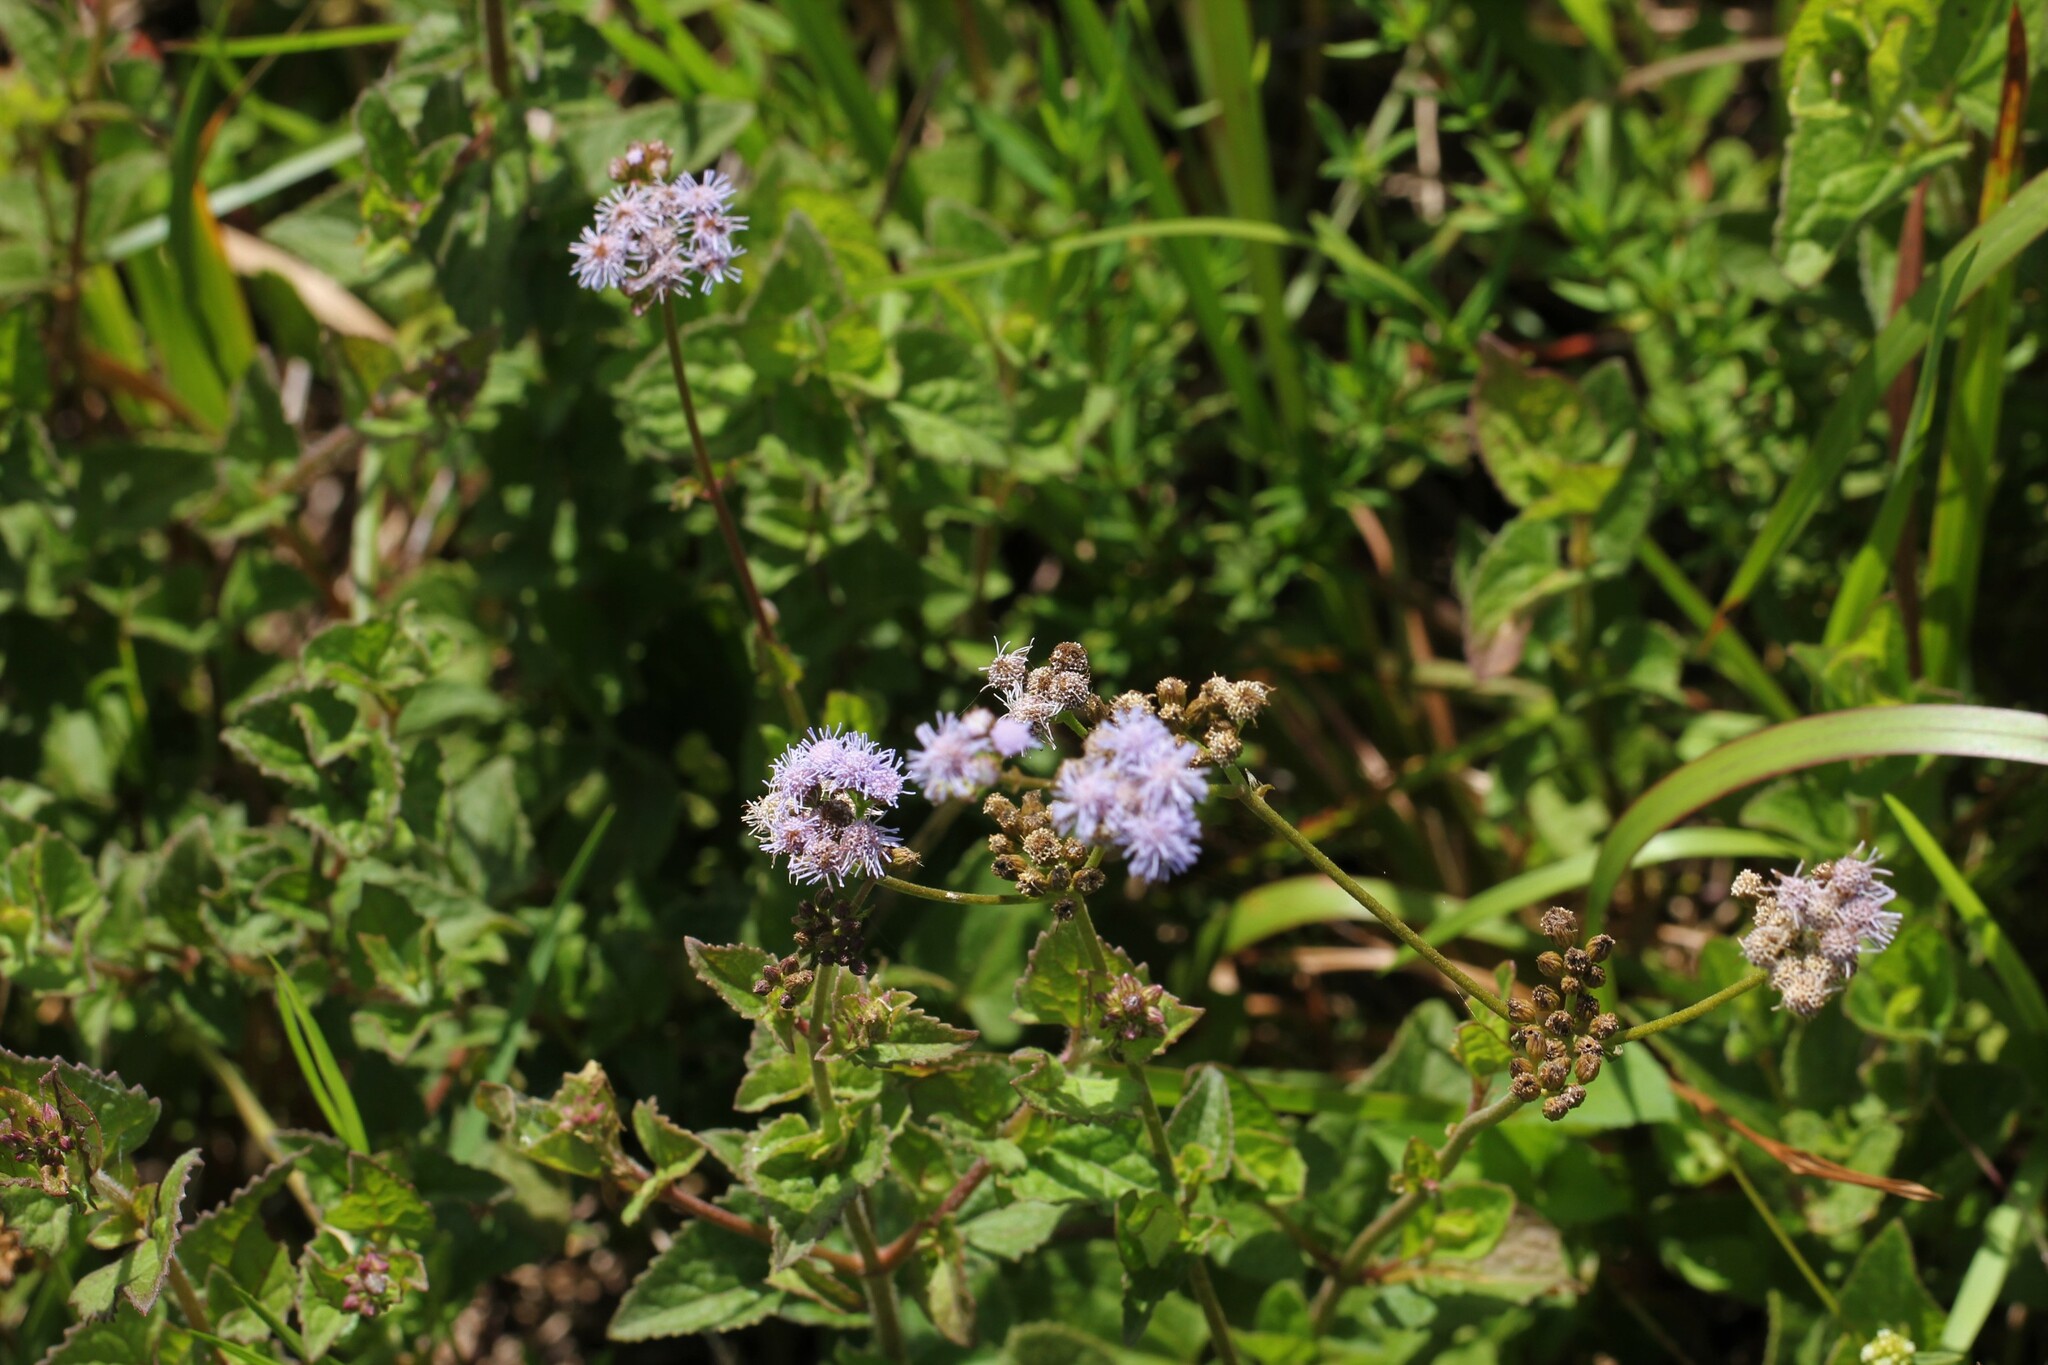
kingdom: Plantae
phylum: Tracheophyta
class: Magnoliopsida
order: Asterales
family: Asteraceae
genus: Conoclinium
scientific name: Conoclinium coelestinum
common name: Blue mistflower
